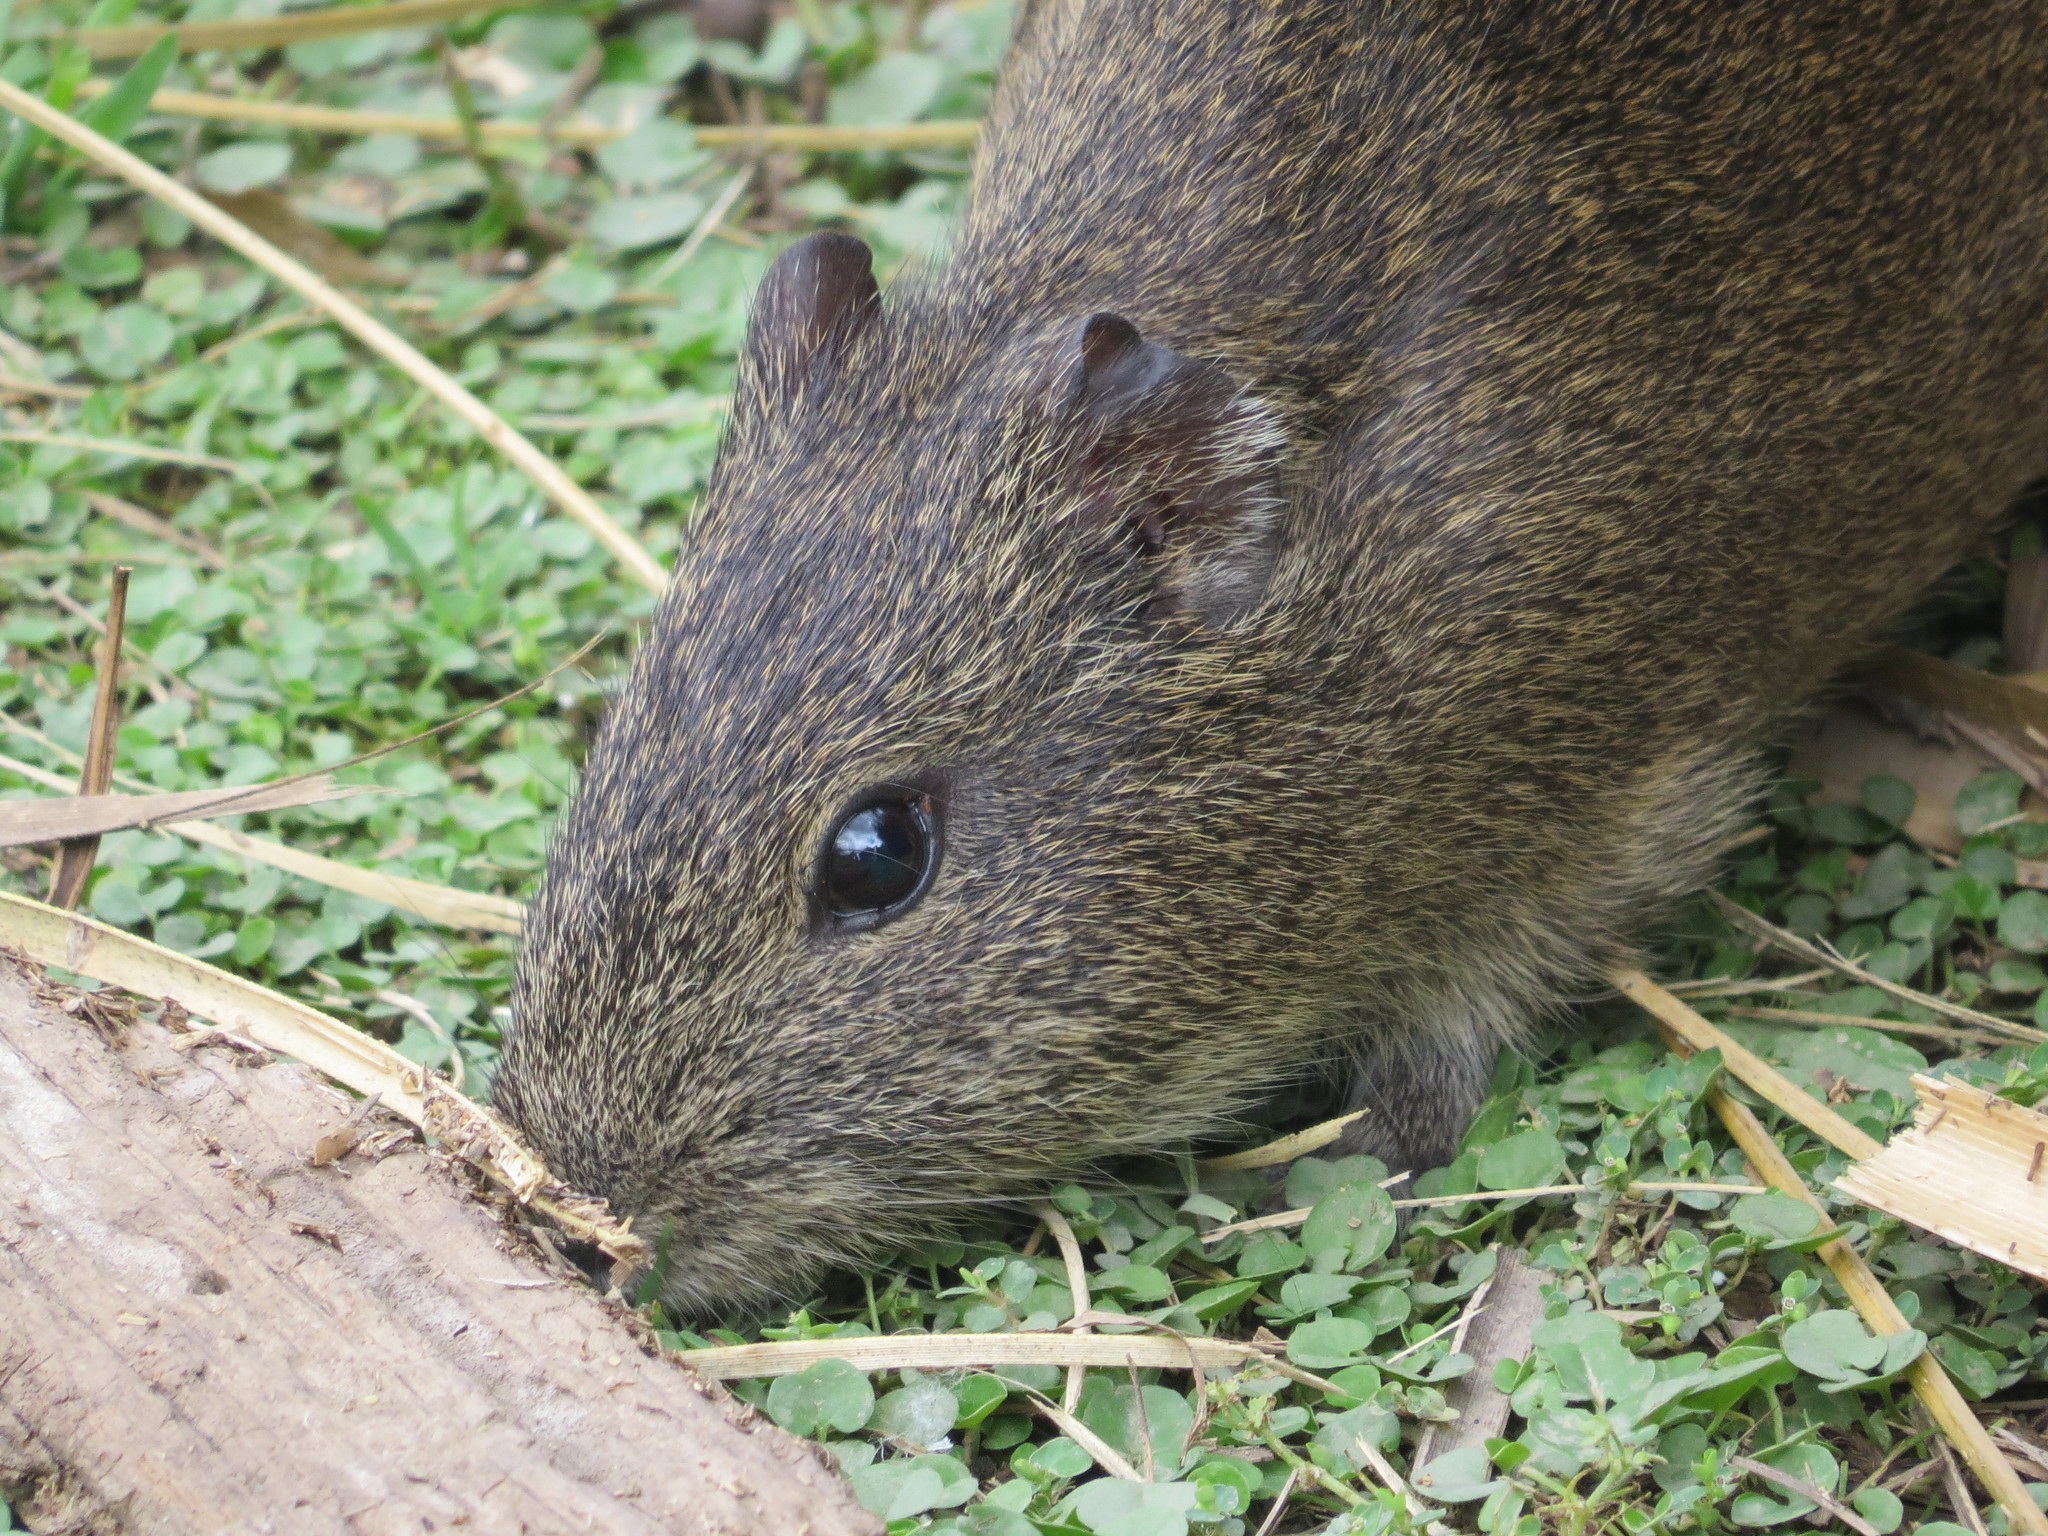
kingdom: Animalia
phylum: Chordata
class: Mammalia
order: Rodentia
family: Caviidae
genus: Cavia
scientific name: Cavia aperea
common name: Brazilian guinea pig
